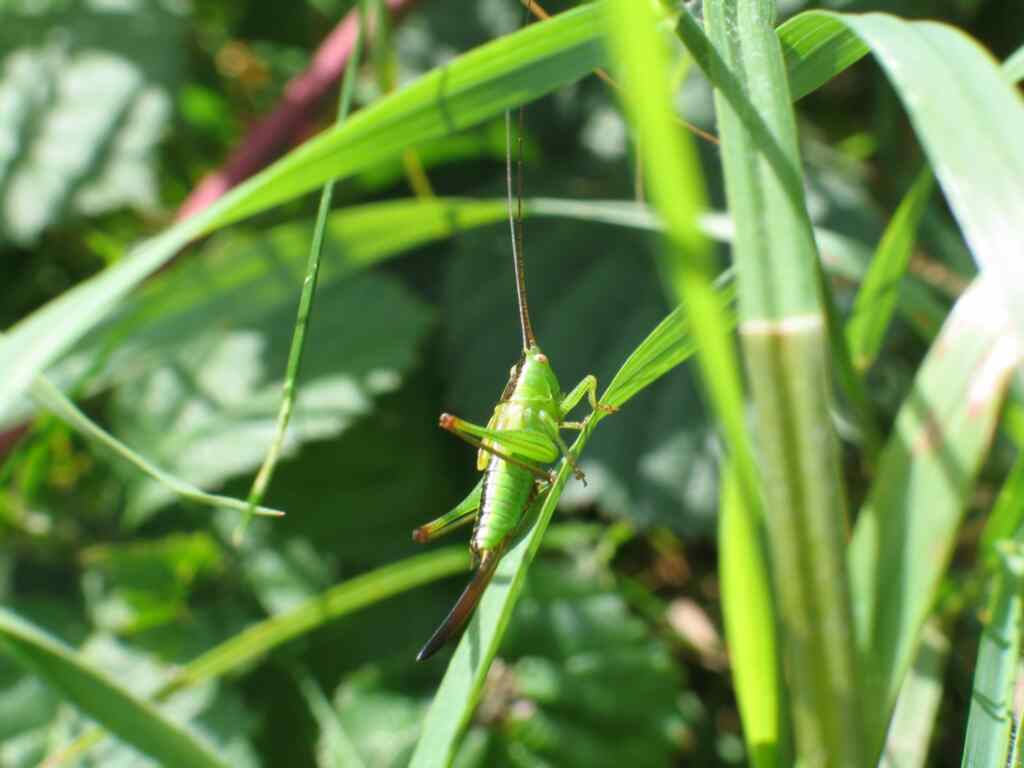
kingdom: Animalia
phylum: Arthropoda
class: Insecta
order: Orthoptera
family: Tettigoniidae
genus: Conocephalus
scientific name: Conocephalus fuscus
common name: Long-winged conehead
